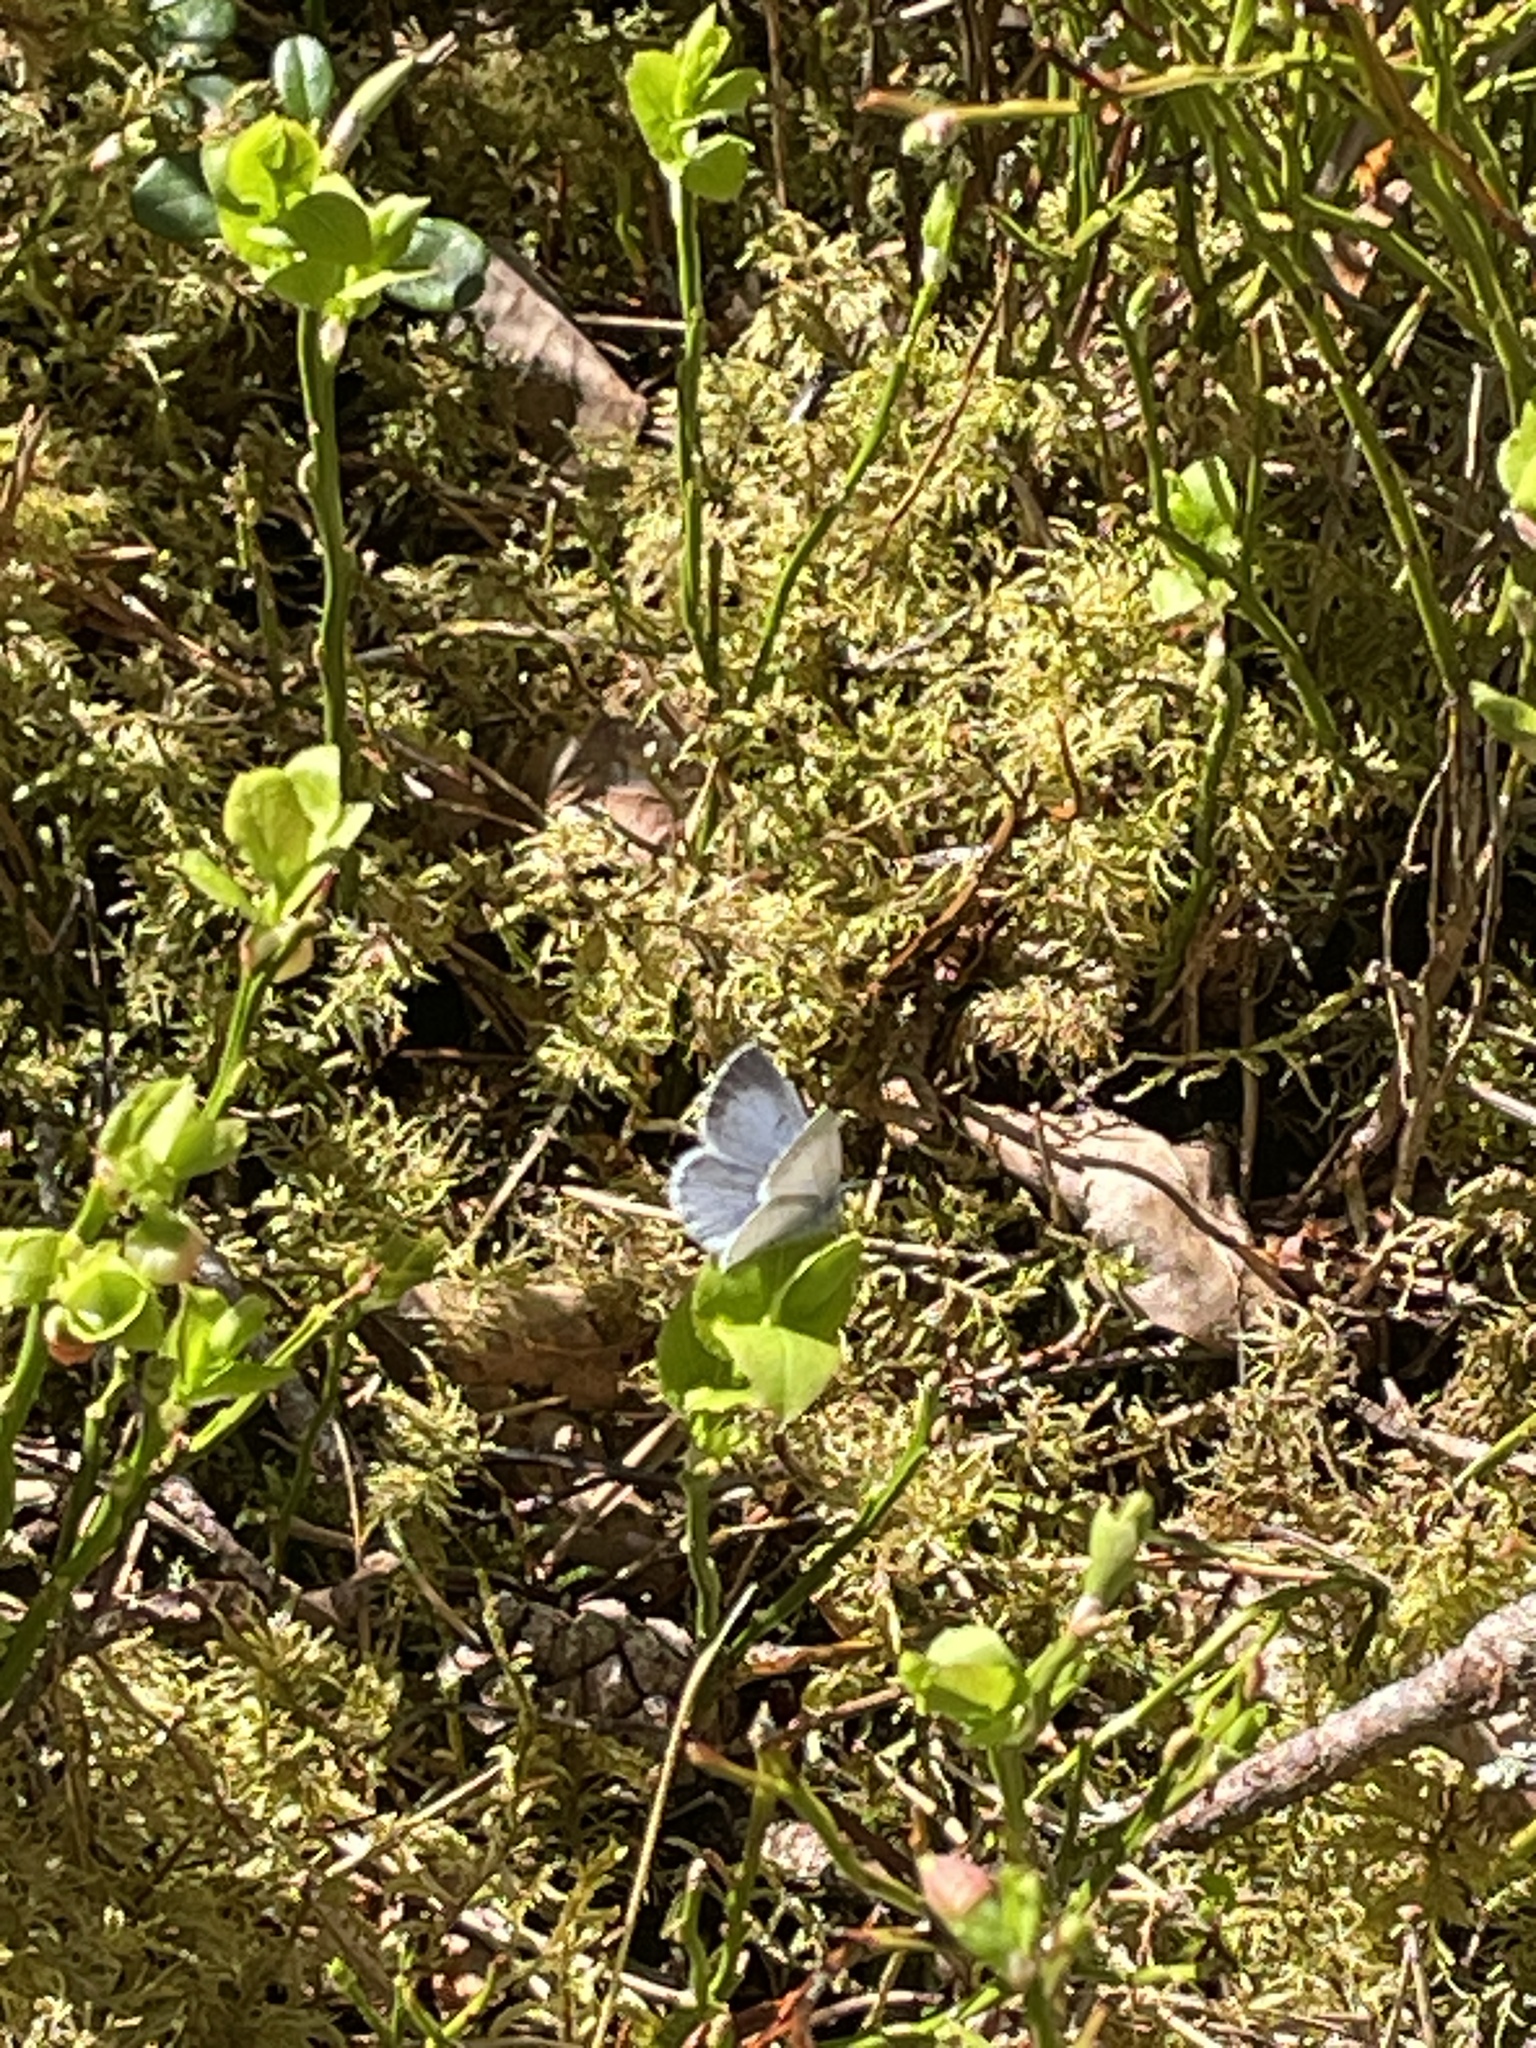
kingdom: Animalia
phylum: Arthropoda
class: Insecta
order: Lepidoptera
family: Lycaenidae
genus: Celastrina
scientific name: Celastrina argiolus
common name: Holly blue
